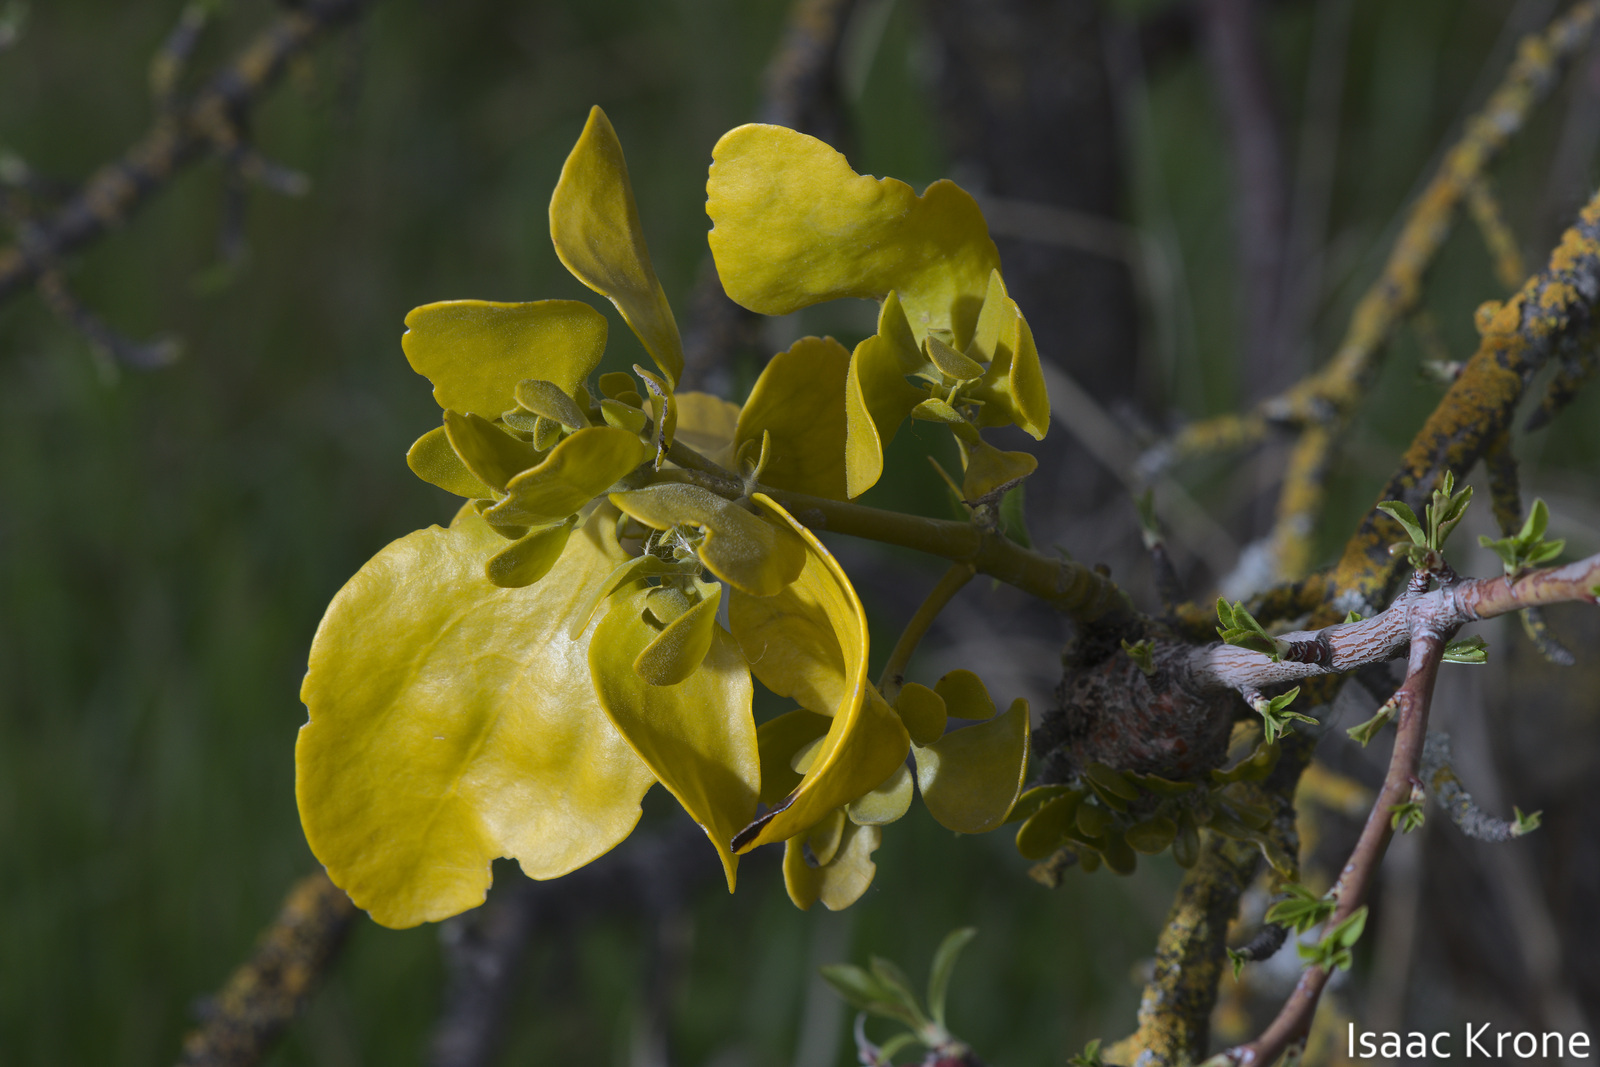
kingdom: Plantae
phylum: Tracheophyta
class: Magnoliopsida
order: Santalales
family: Viscaceae
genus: Phoradendron
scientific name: Phoradendron
